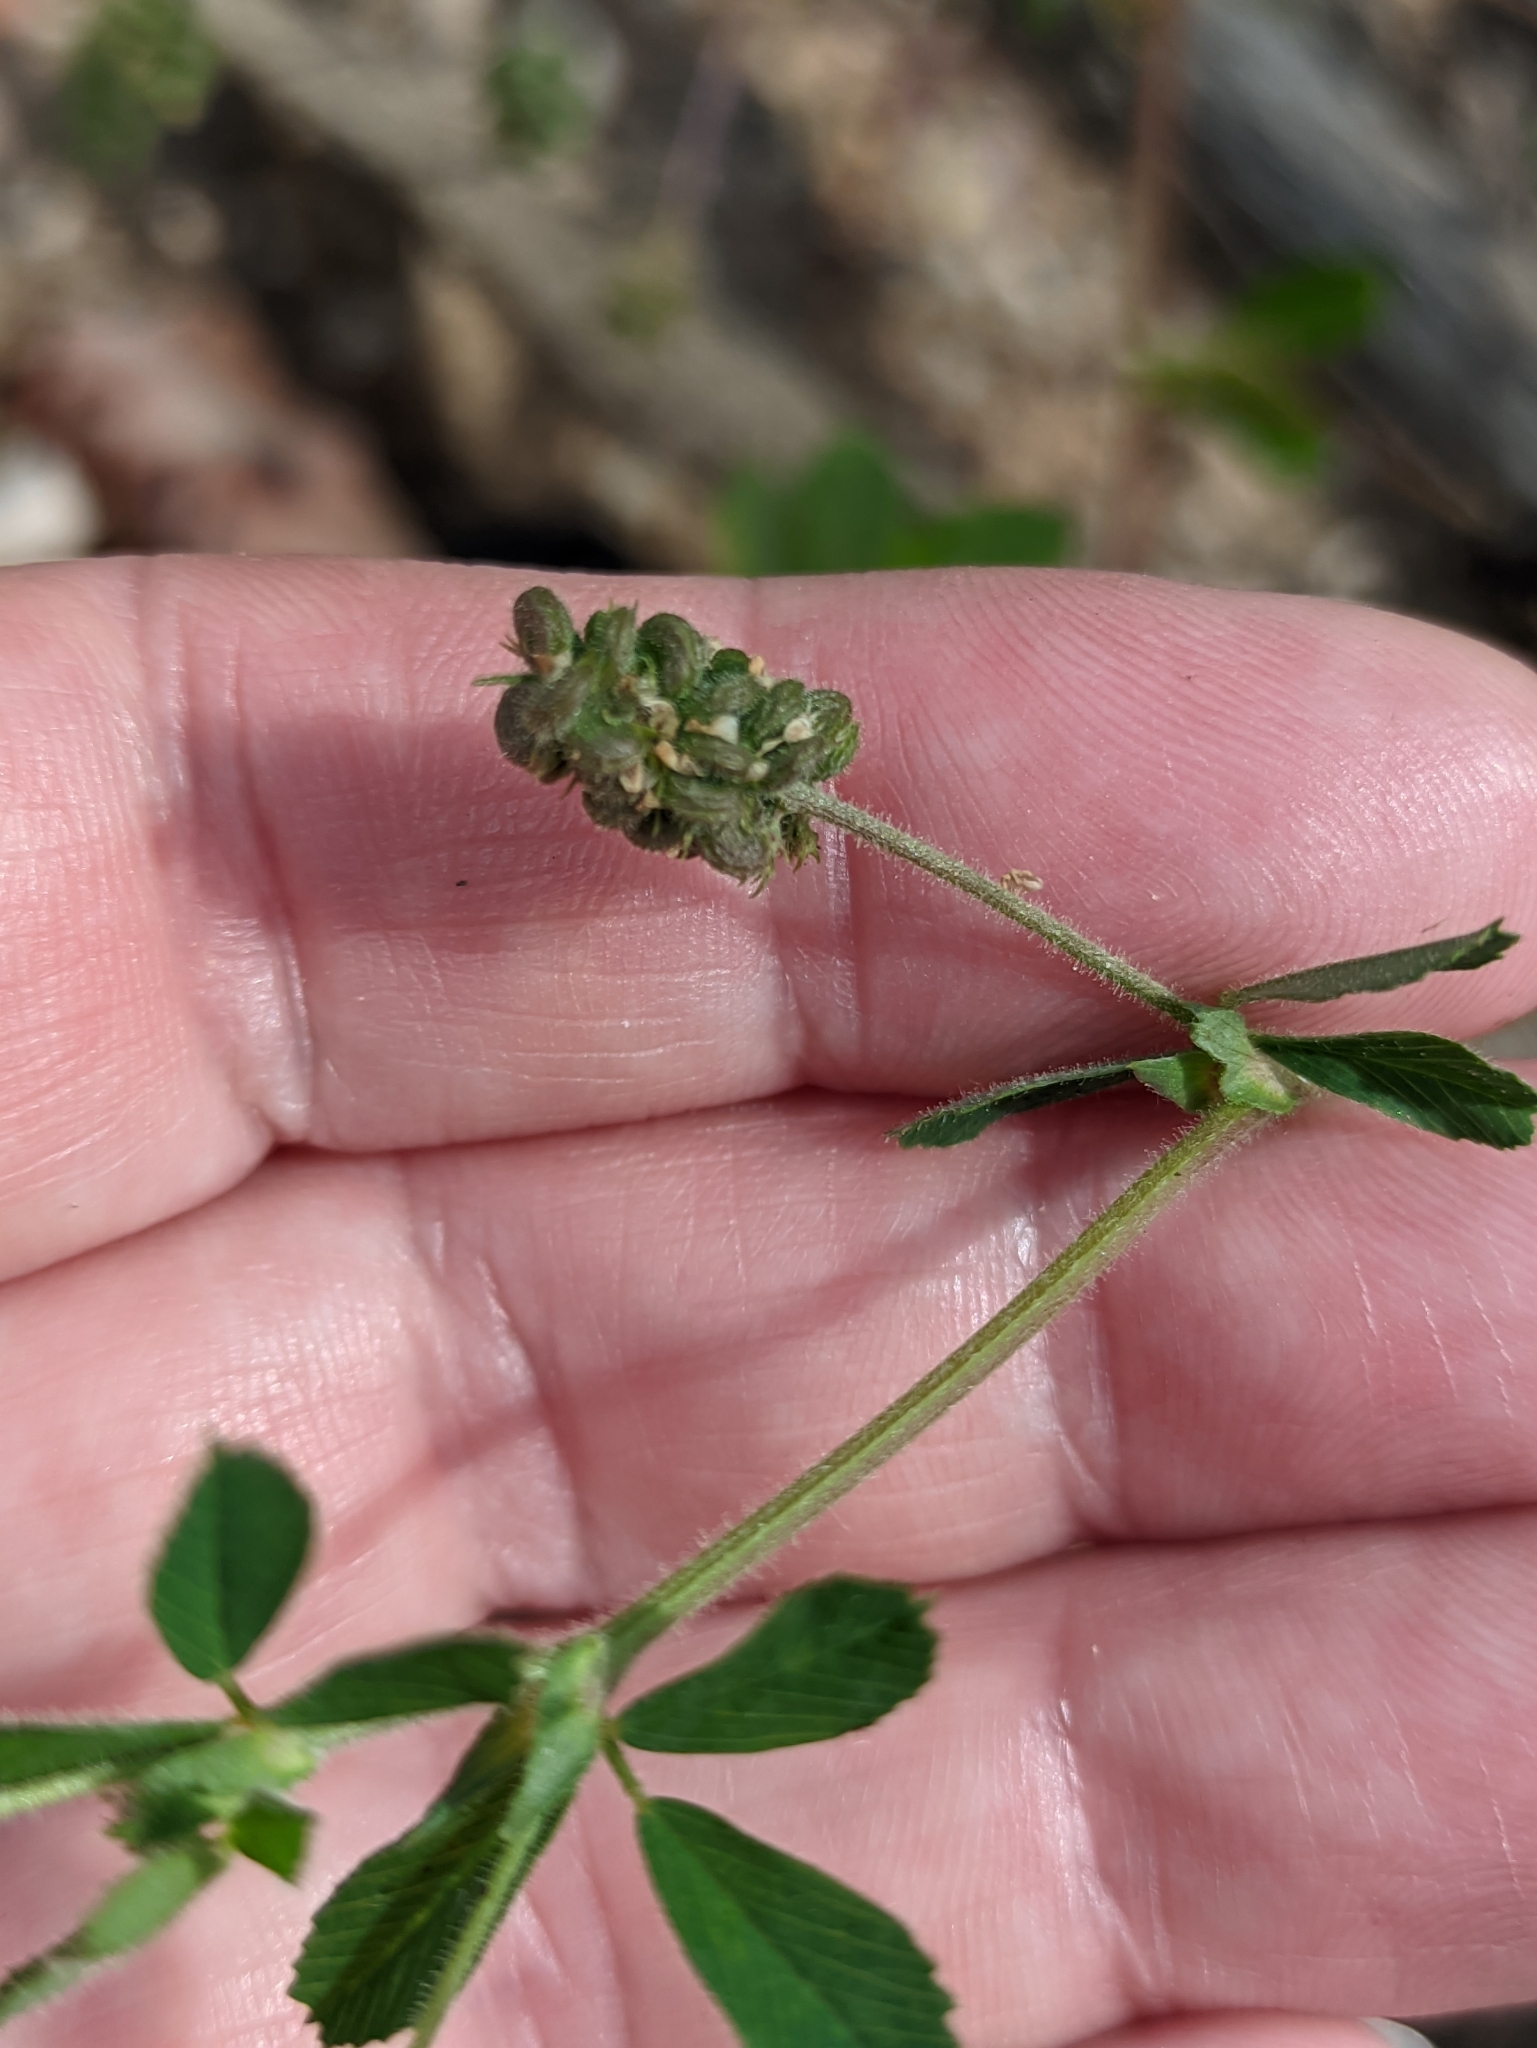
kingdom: Plantae
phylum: Tracheophyta
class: Magnoliopsida
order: Fabales
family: Fabaceae
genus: Medicago
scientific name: Medicago lupulina
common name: Black medick
